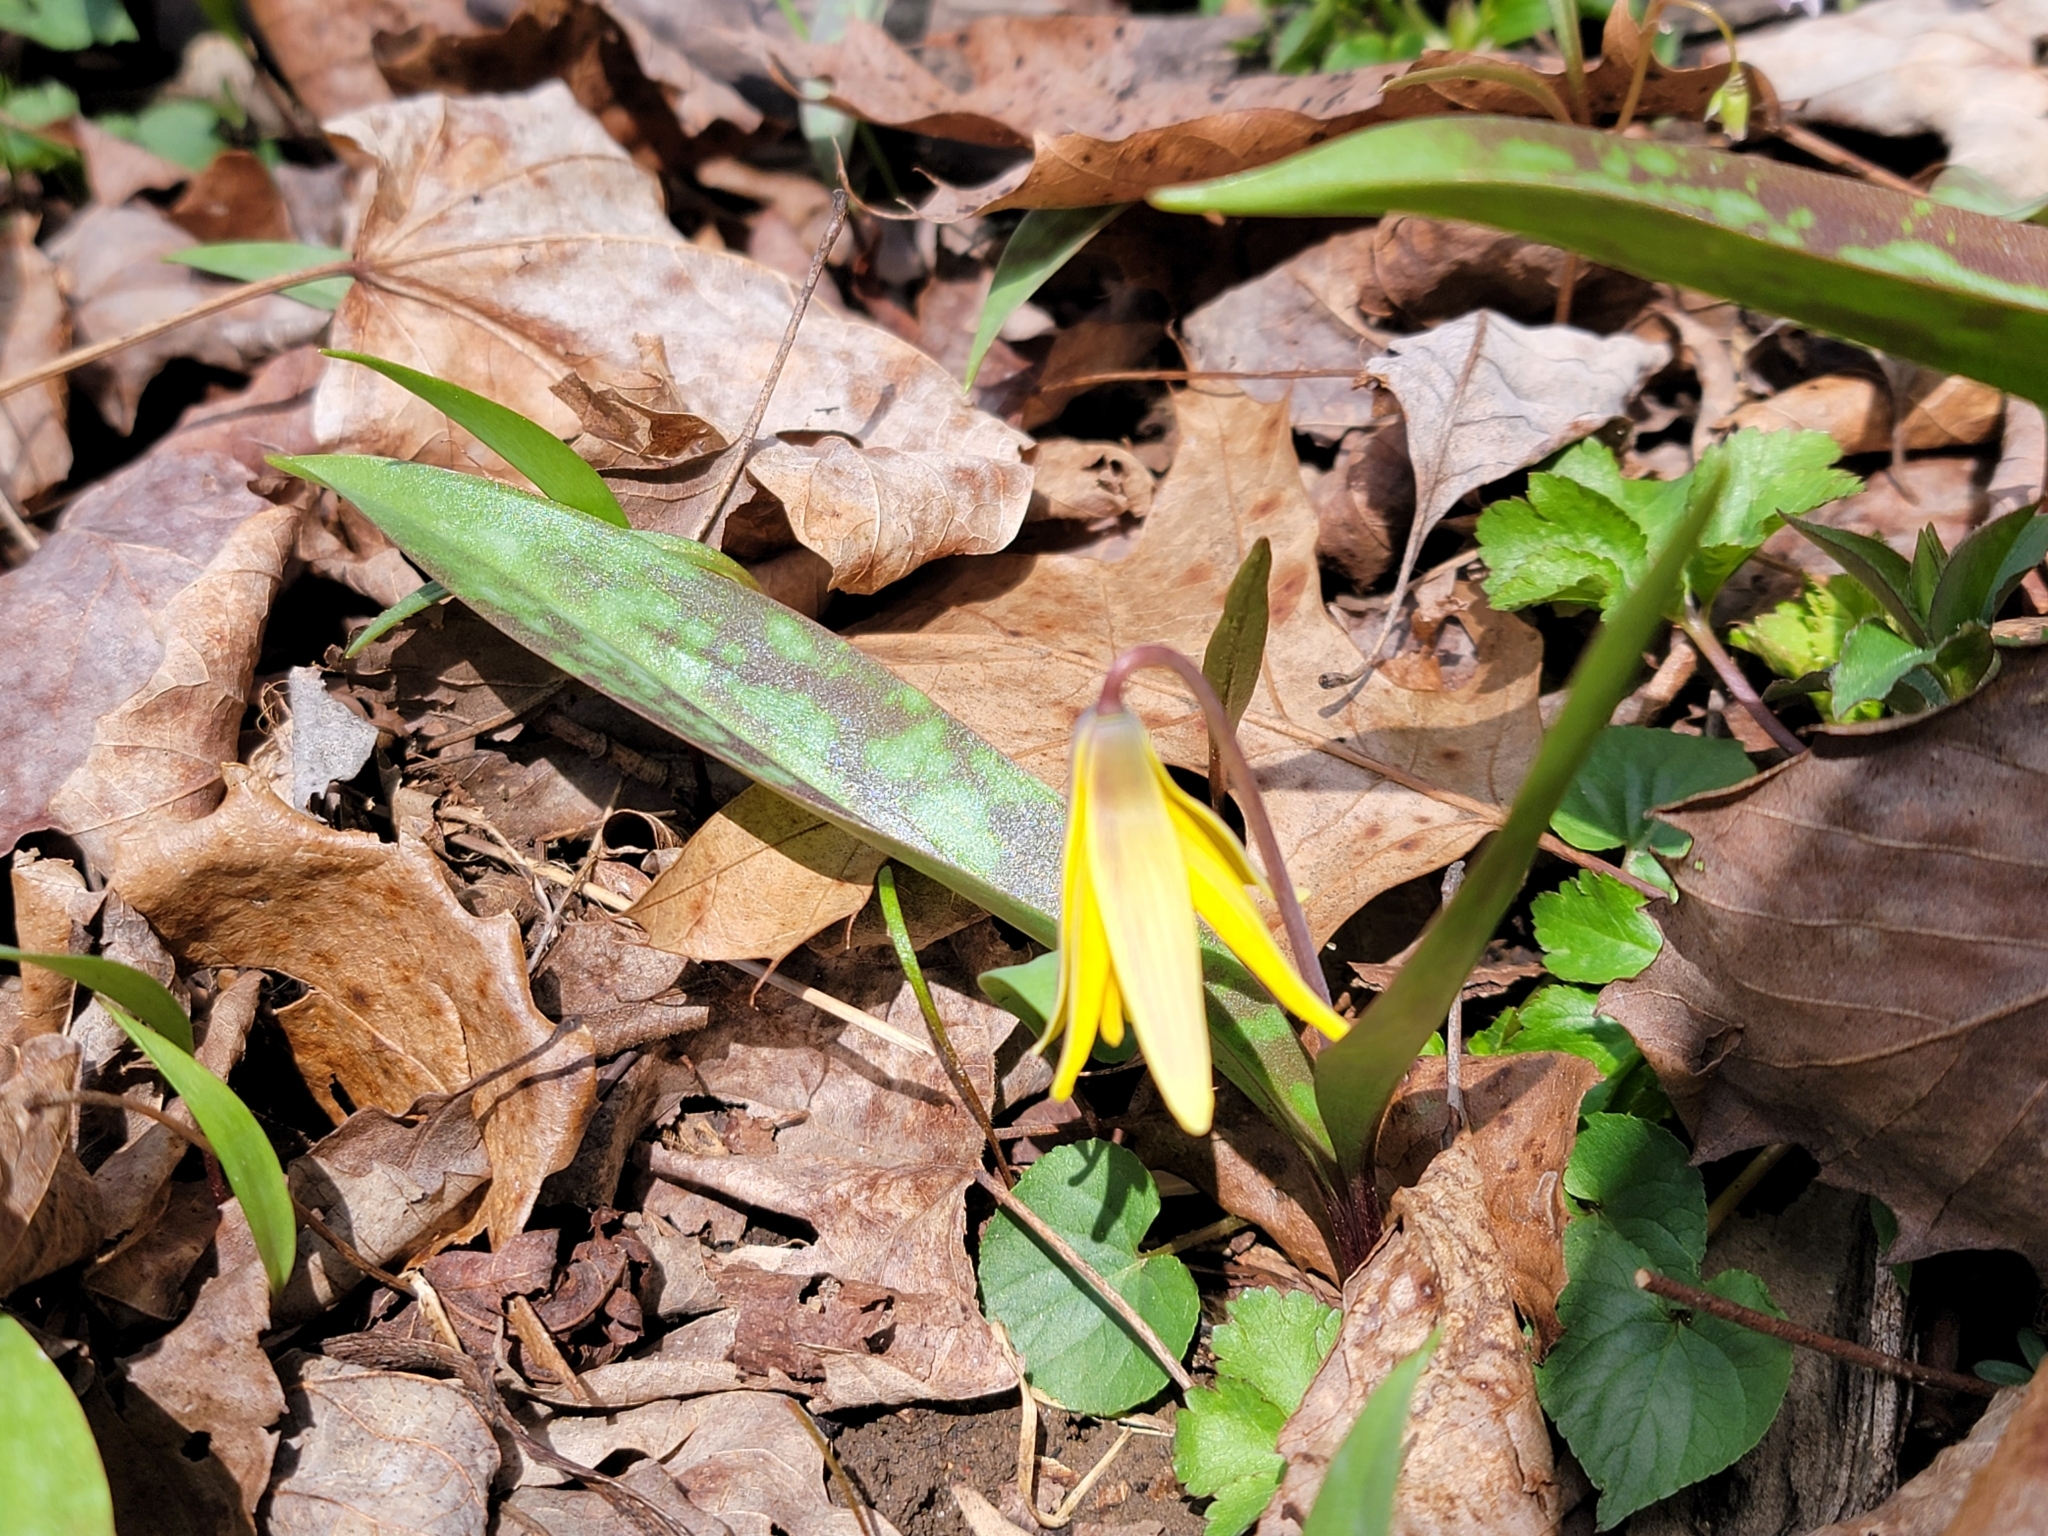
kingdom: Plantae
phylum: Tracheophyta
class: Liliopsida
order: Liliales
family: Liliaceae
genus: Erythronium
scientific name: Erythronium americanum
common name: Yellow adder's-tongue
